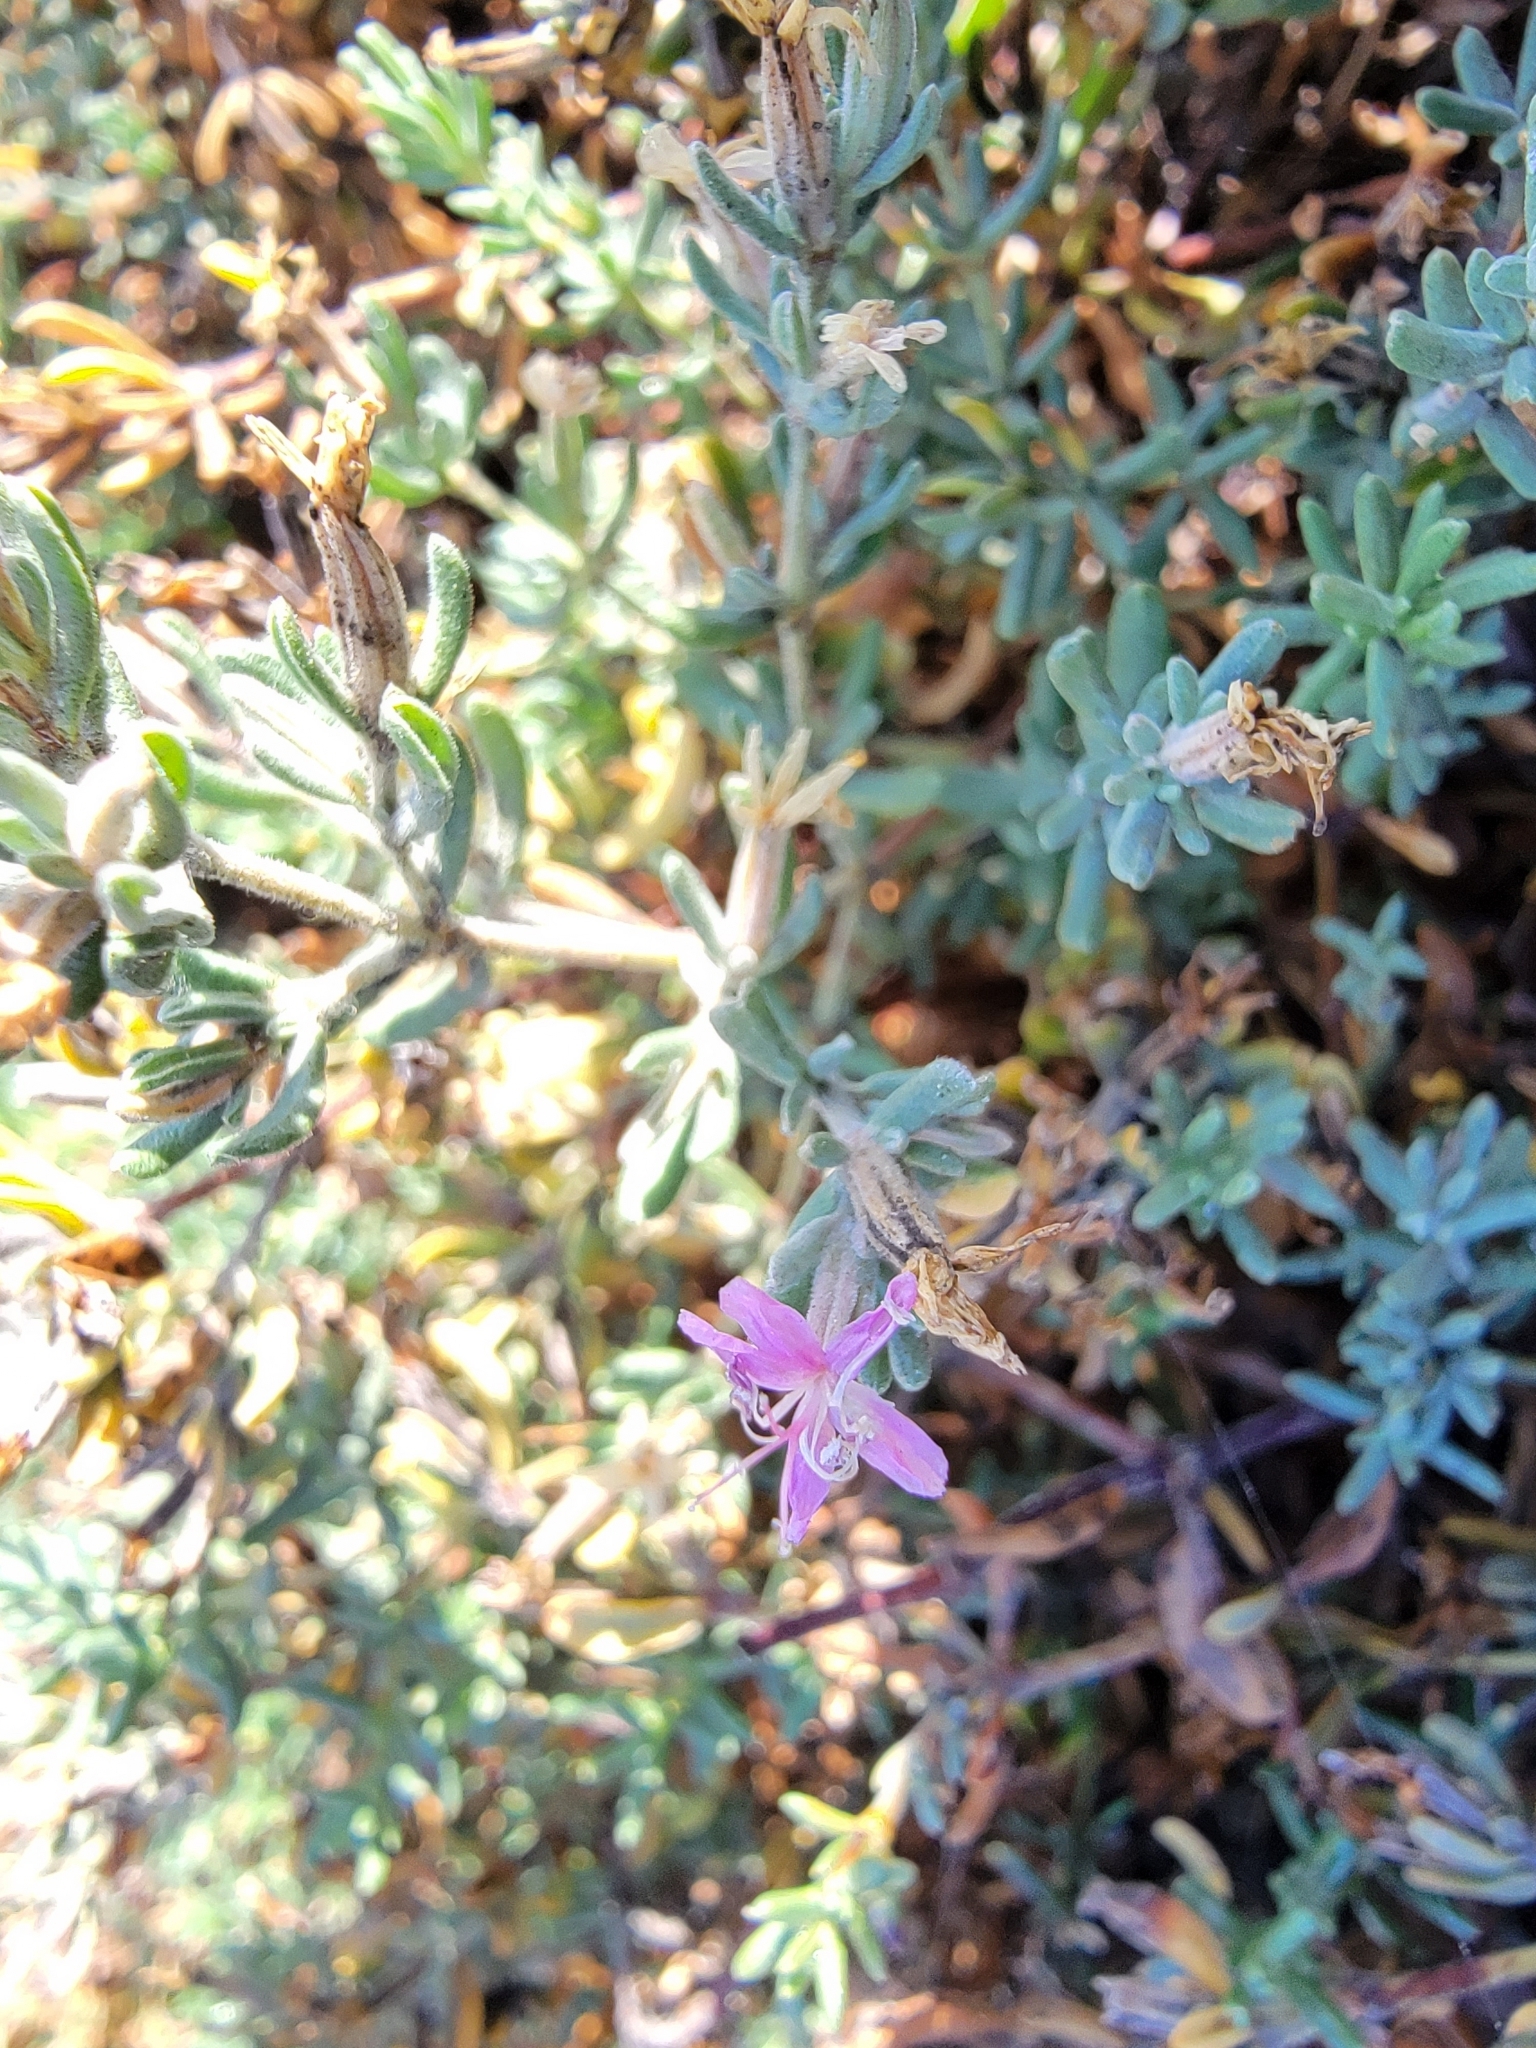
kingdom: Plantae
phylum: Tracheophyta
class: Magnoliopsida
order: Caryophyllales
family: Frankeniaceae
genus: Frankenia
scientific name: Frankenia salina
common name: Alkali seaheath
